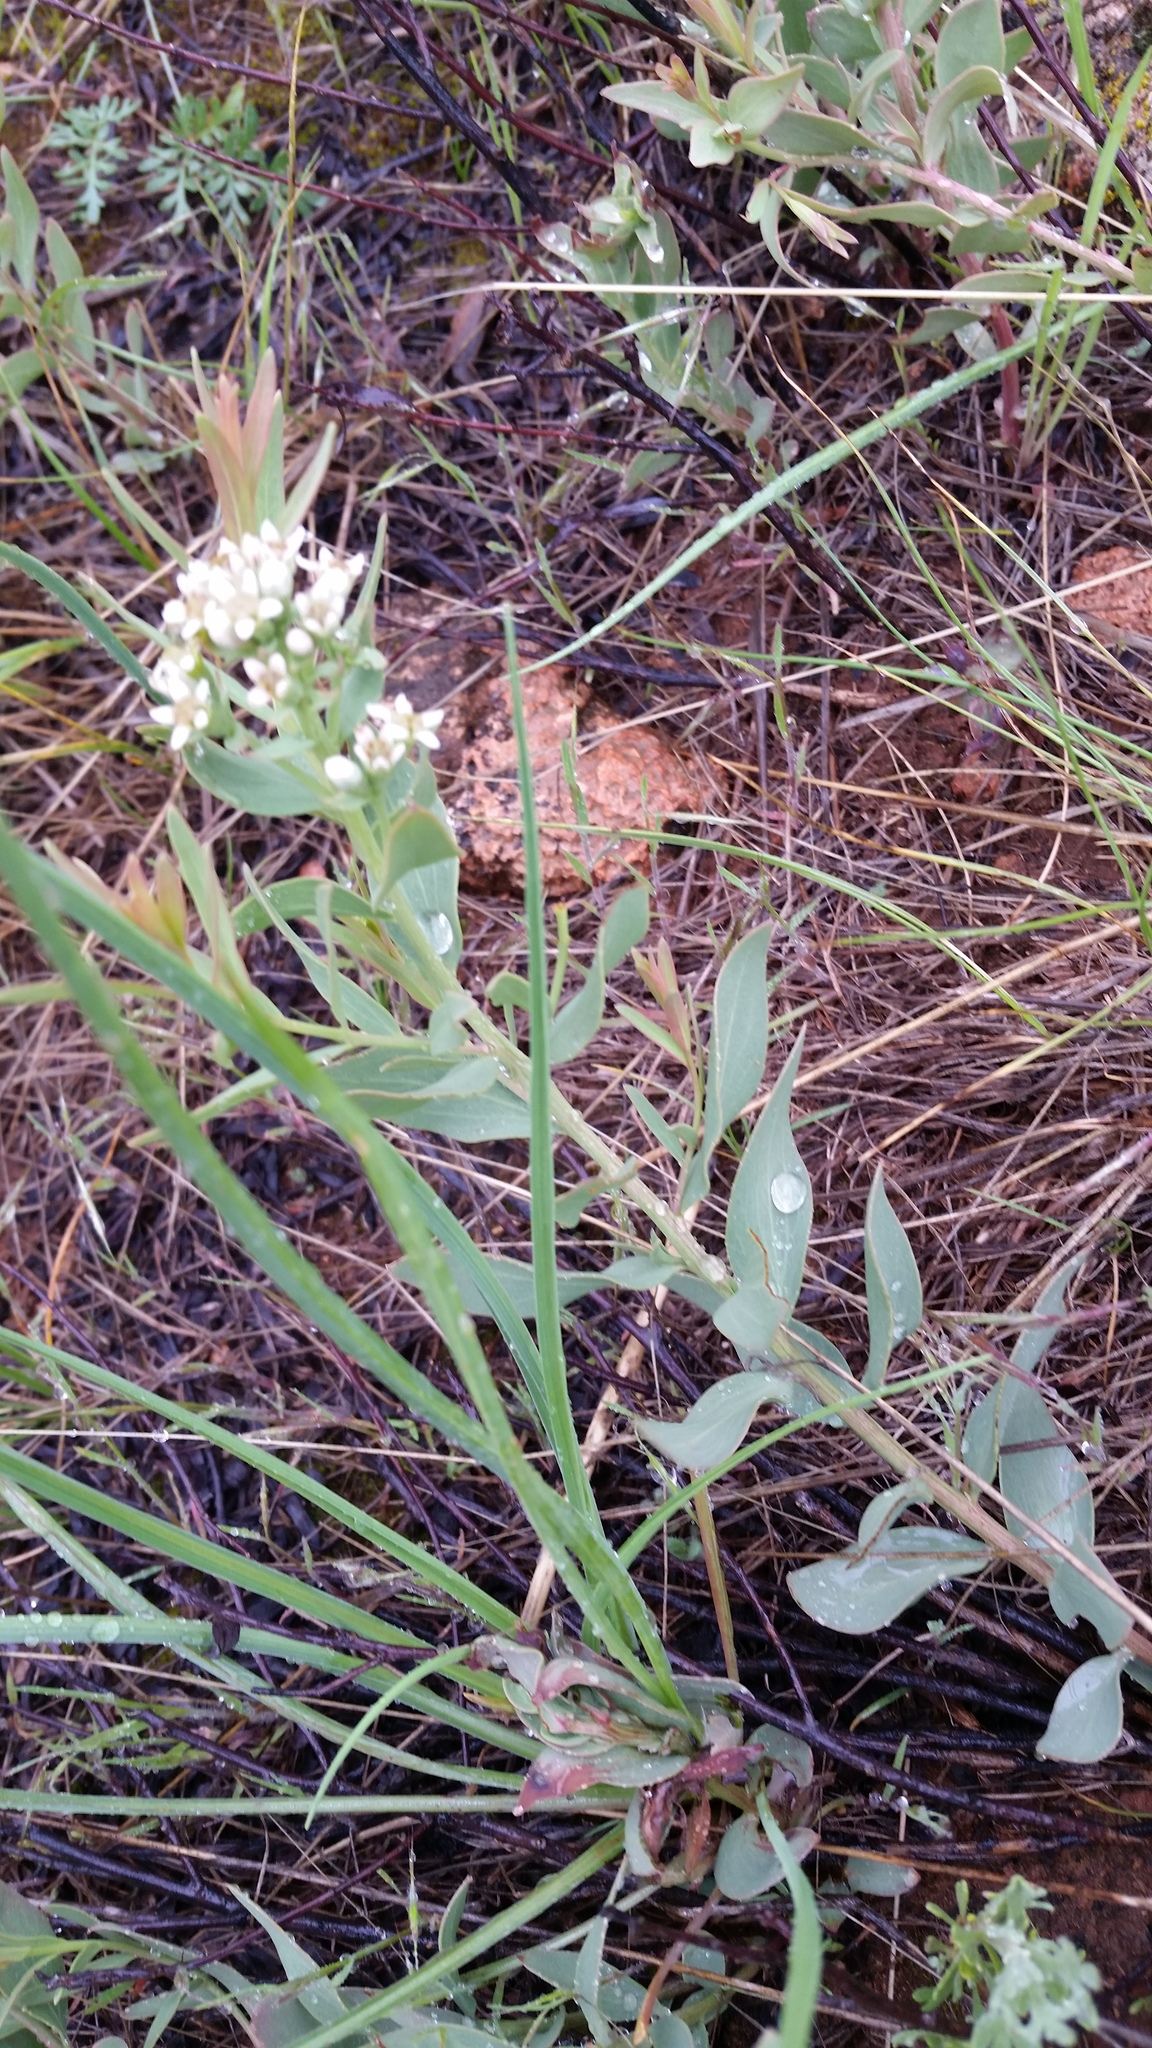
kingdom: Plantae
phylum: Tracheophyta
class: Magnoliopsida
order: Santalales
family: Comandraceae
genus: Comandra
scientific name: Comandra umbellata
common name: Bastard toadflax
